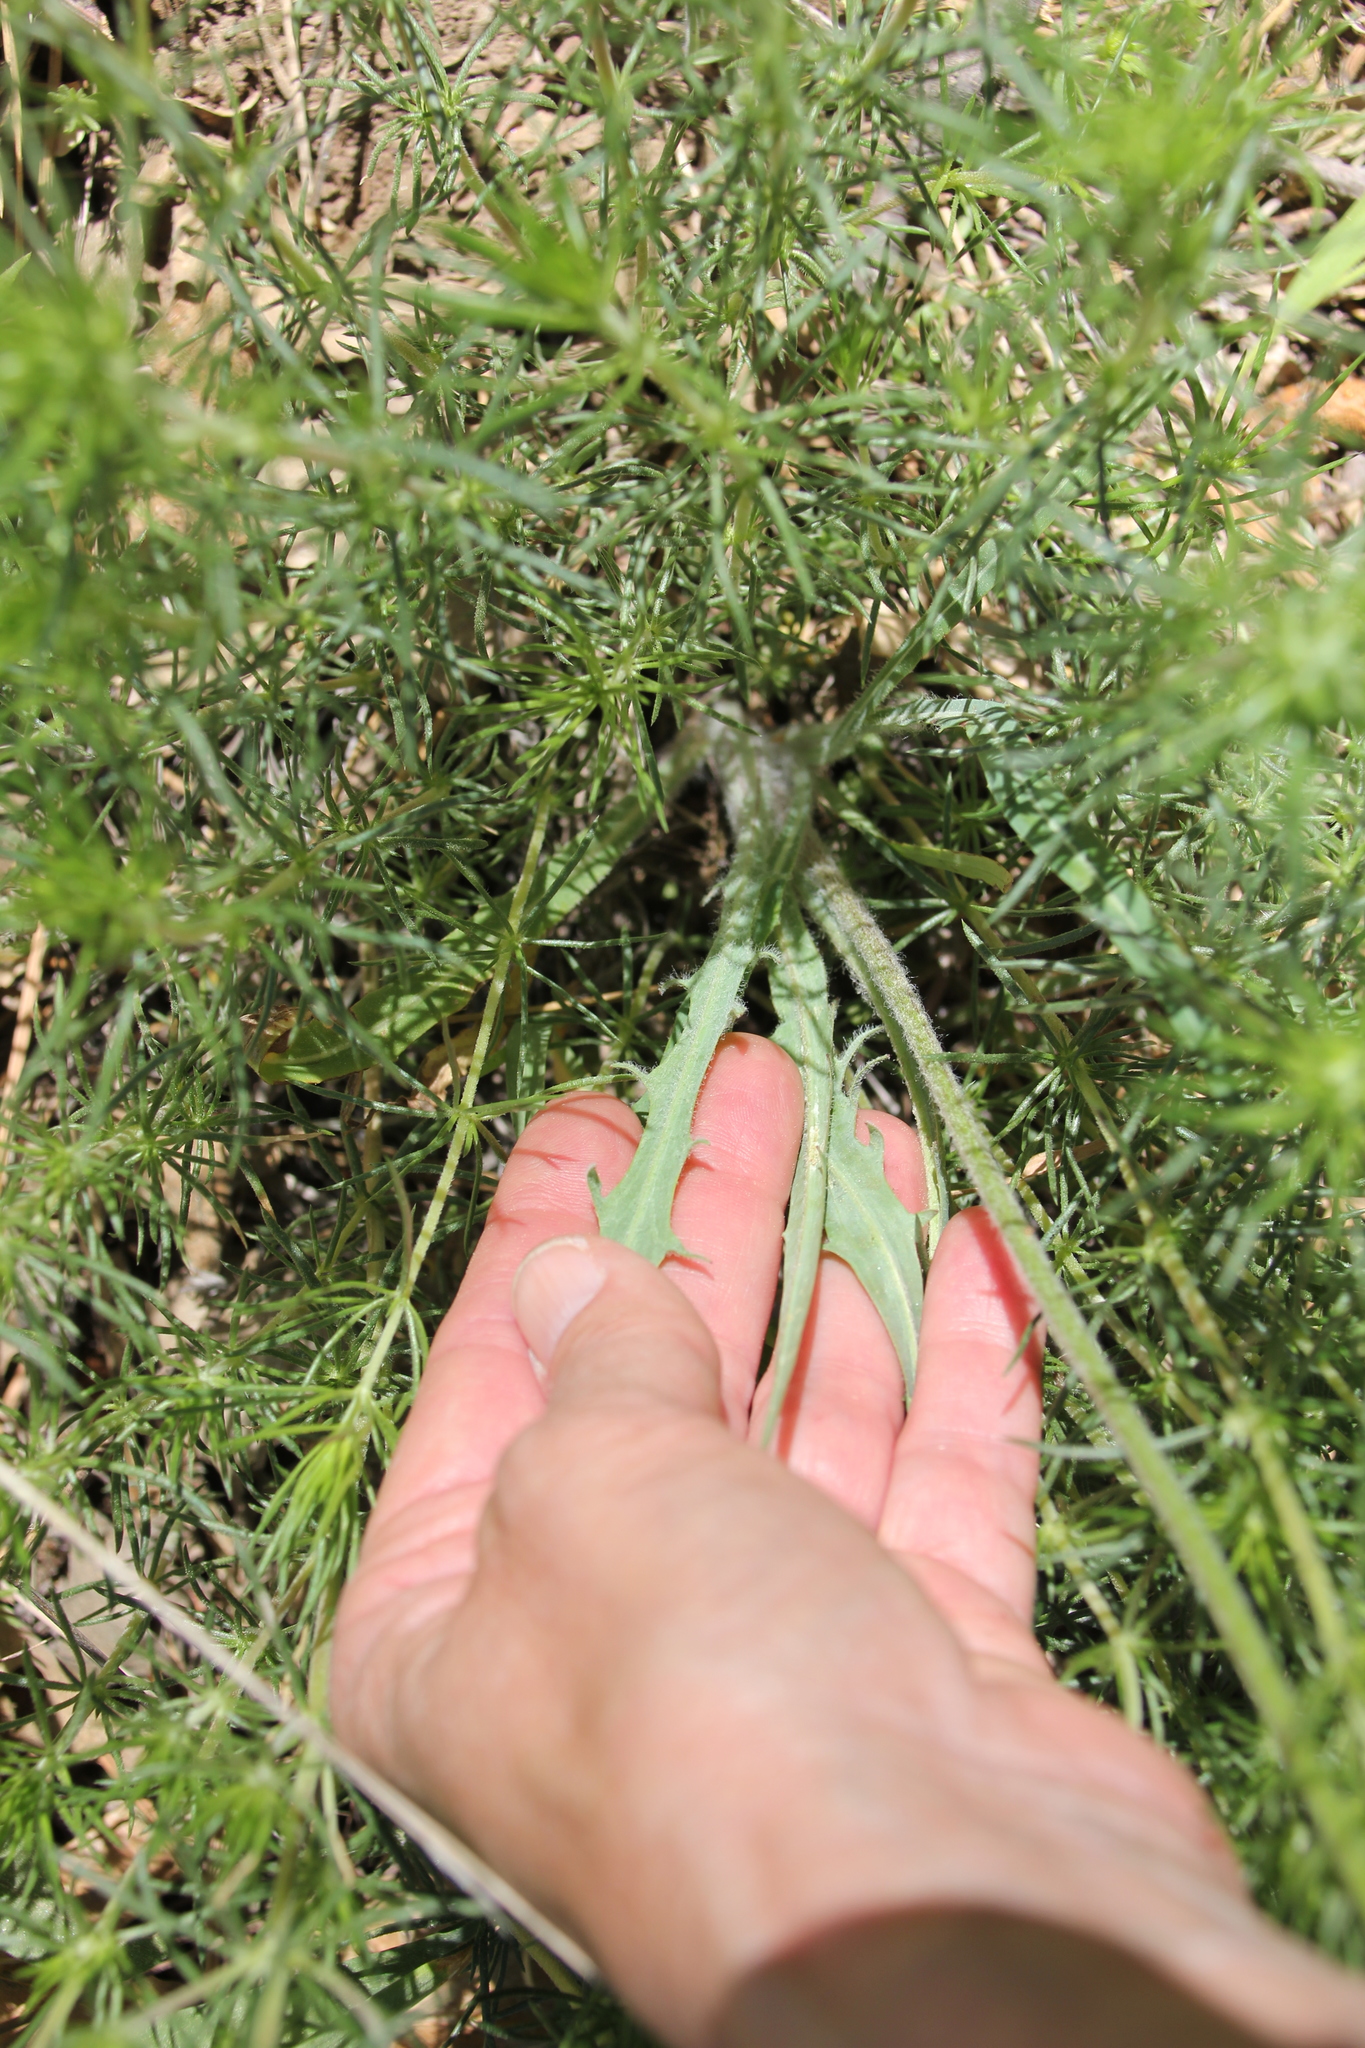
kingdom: Plantae
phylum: Tracheophyta
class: Magnoliopsida
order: Asterales
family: Asteraceae
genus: Agoseris
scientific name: Agoseris
